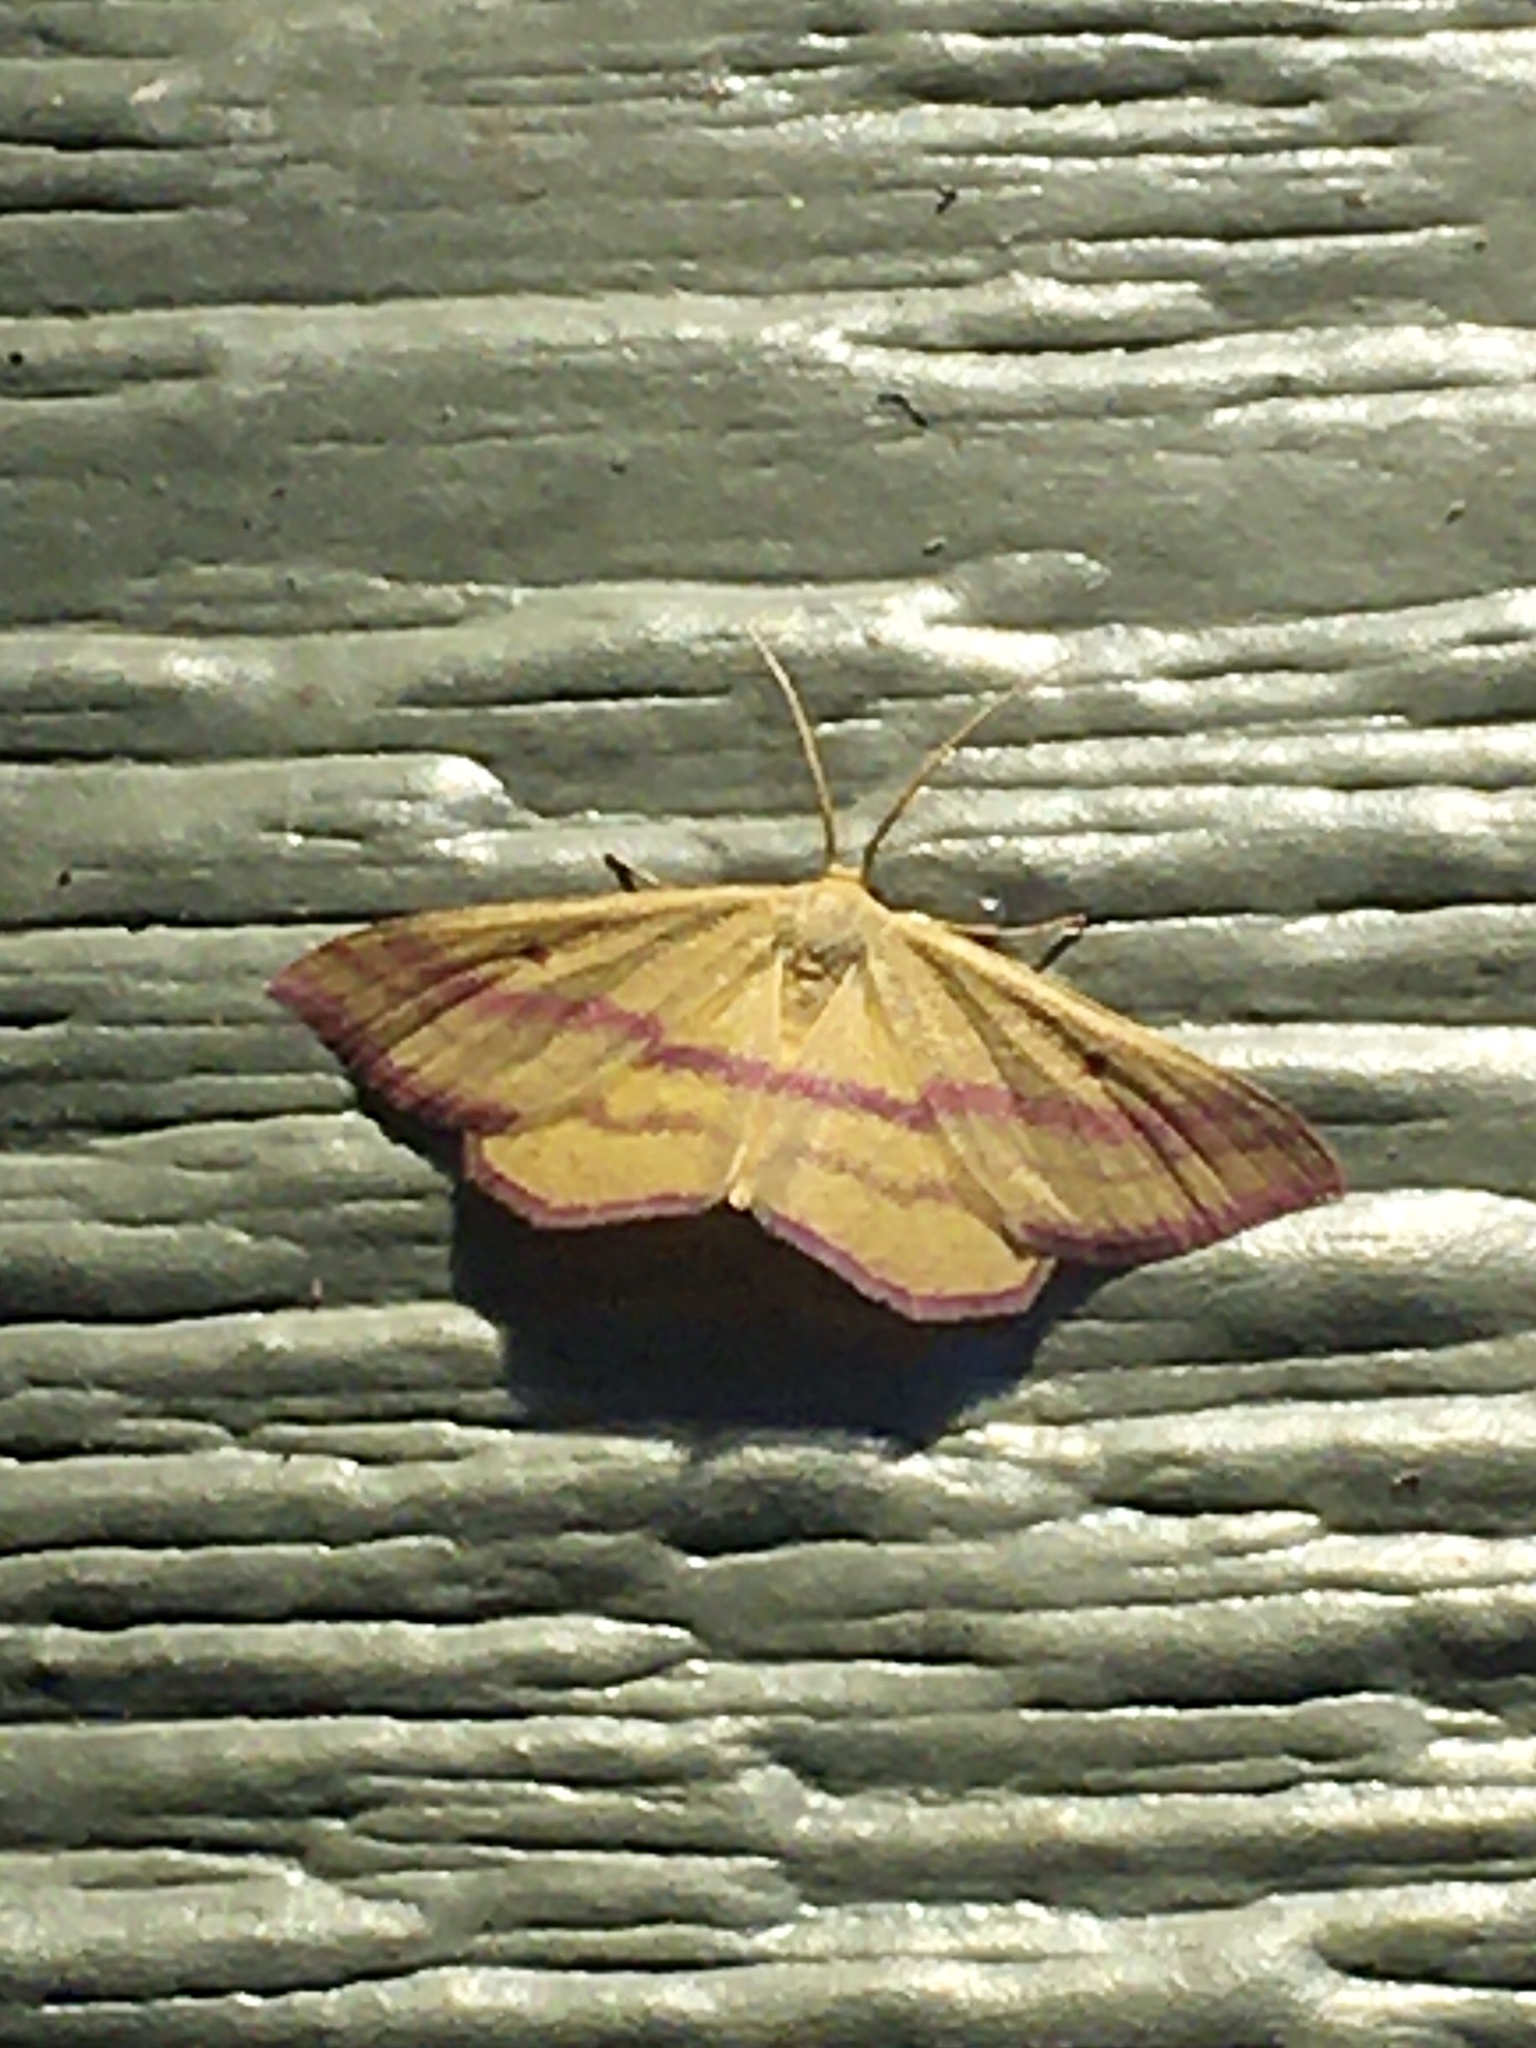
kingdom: Animalia
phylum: Arthropoda
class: Insecta
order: Lepidoptera
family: Geometridae
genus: Haematopis
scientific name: Haematopis grataria
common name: Chickweed geometer
